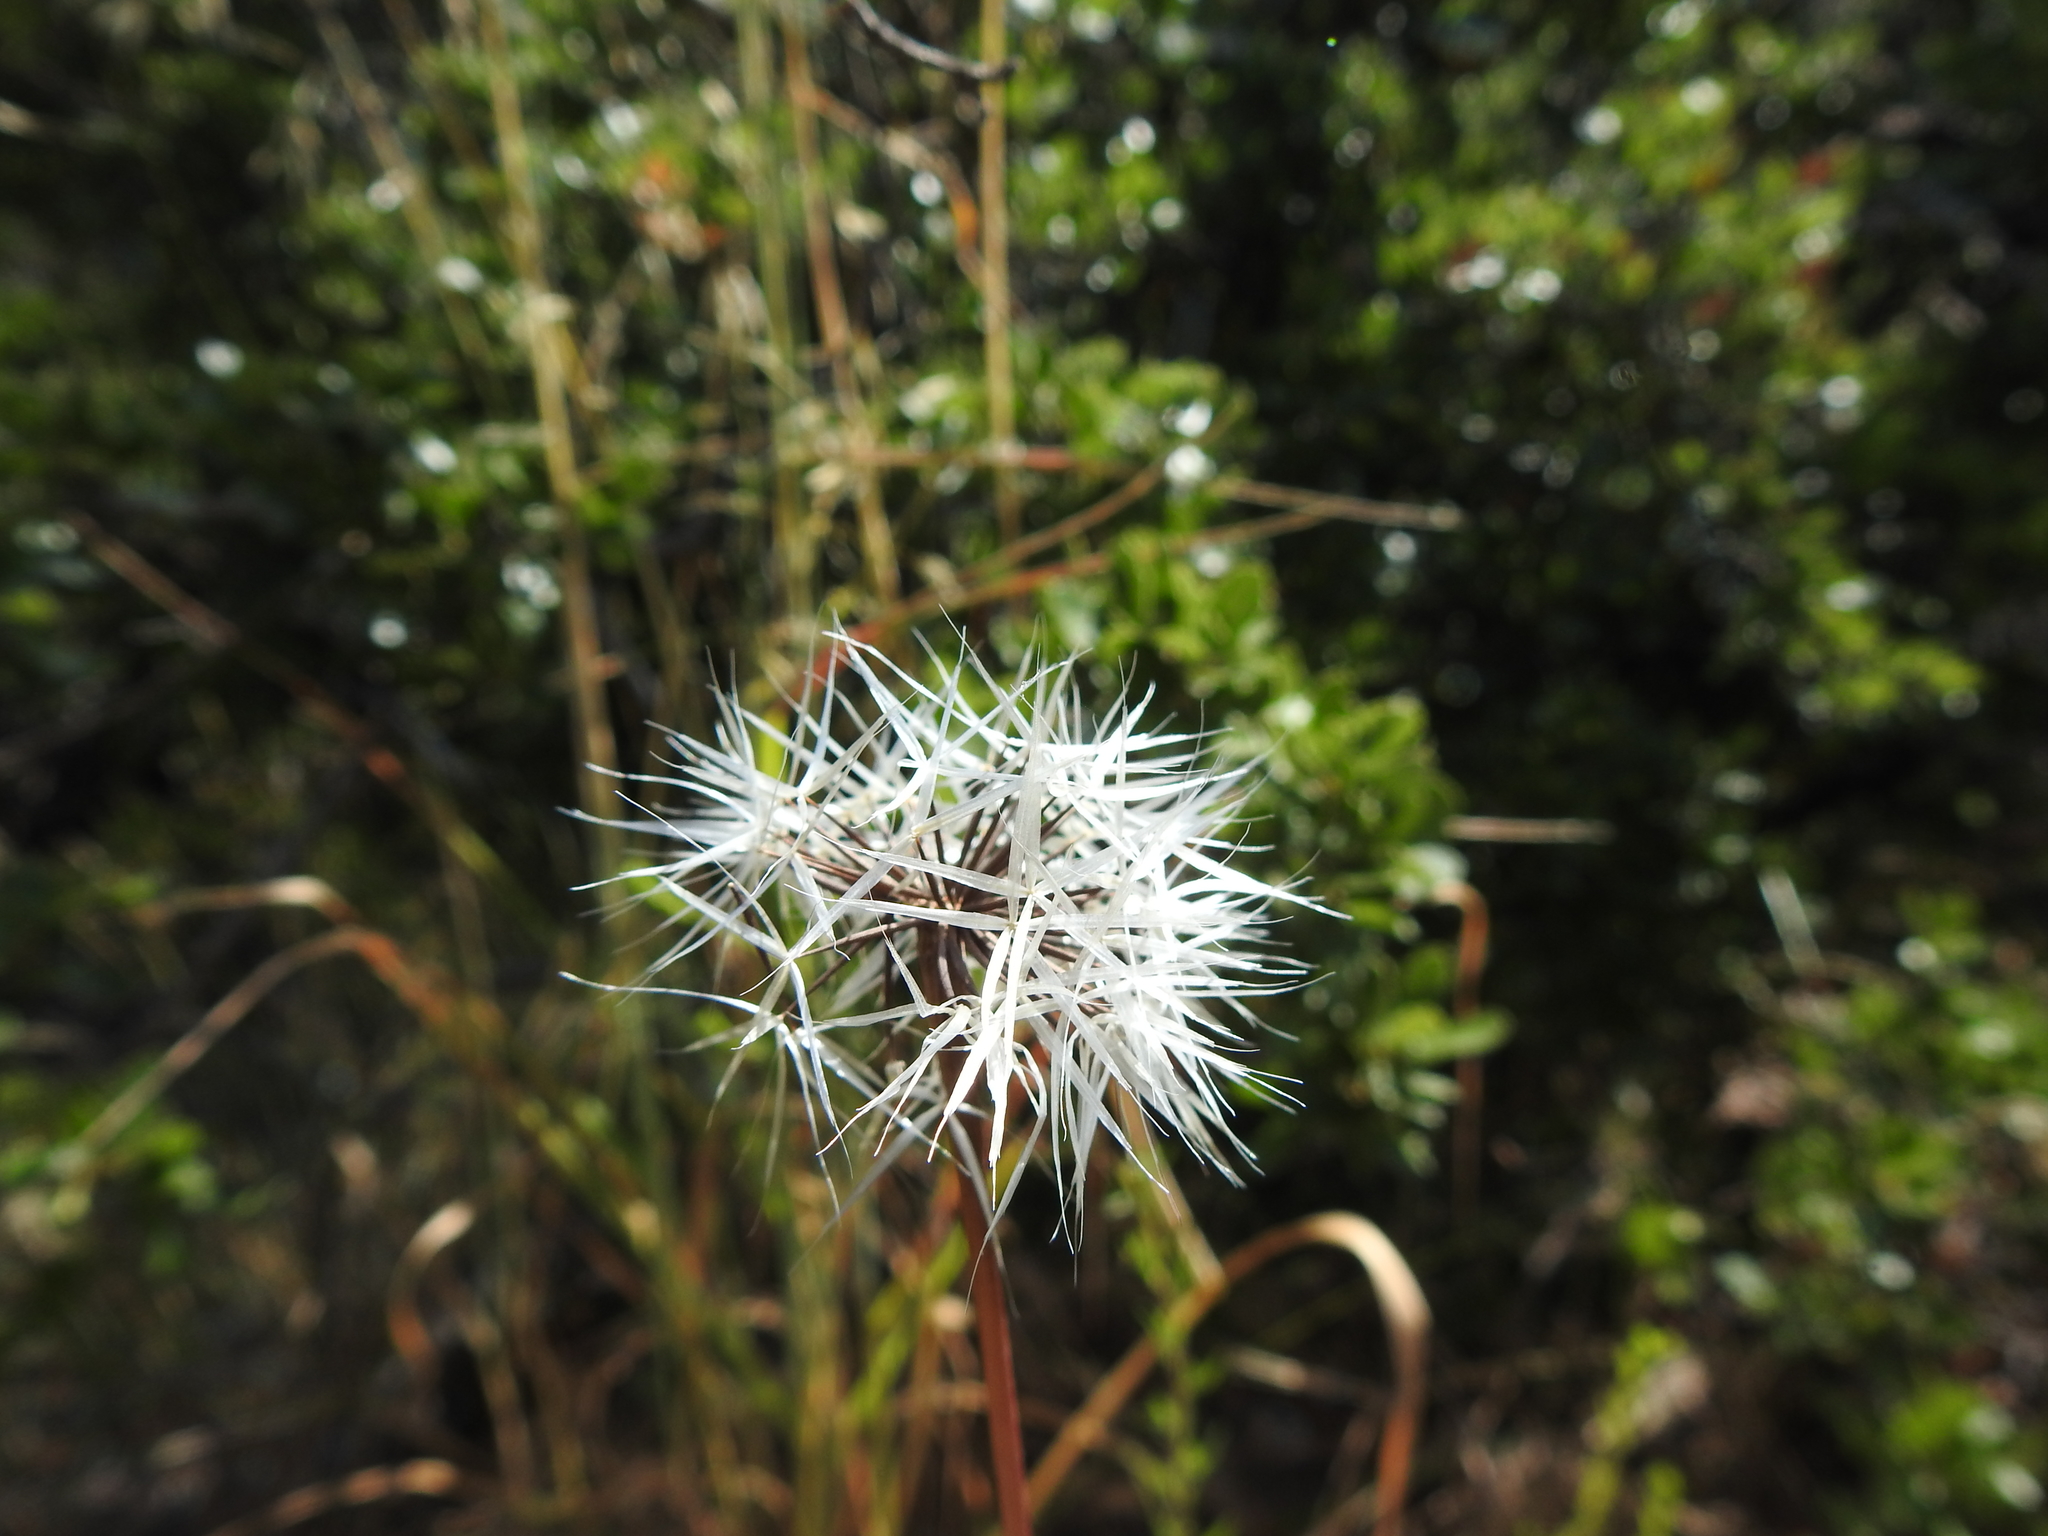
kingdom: Plantae
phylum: Tracheophyta
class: Magnoliopsida
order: Asterales
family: Asteraceae
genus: Microseris
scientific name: Microseris lindleyi
